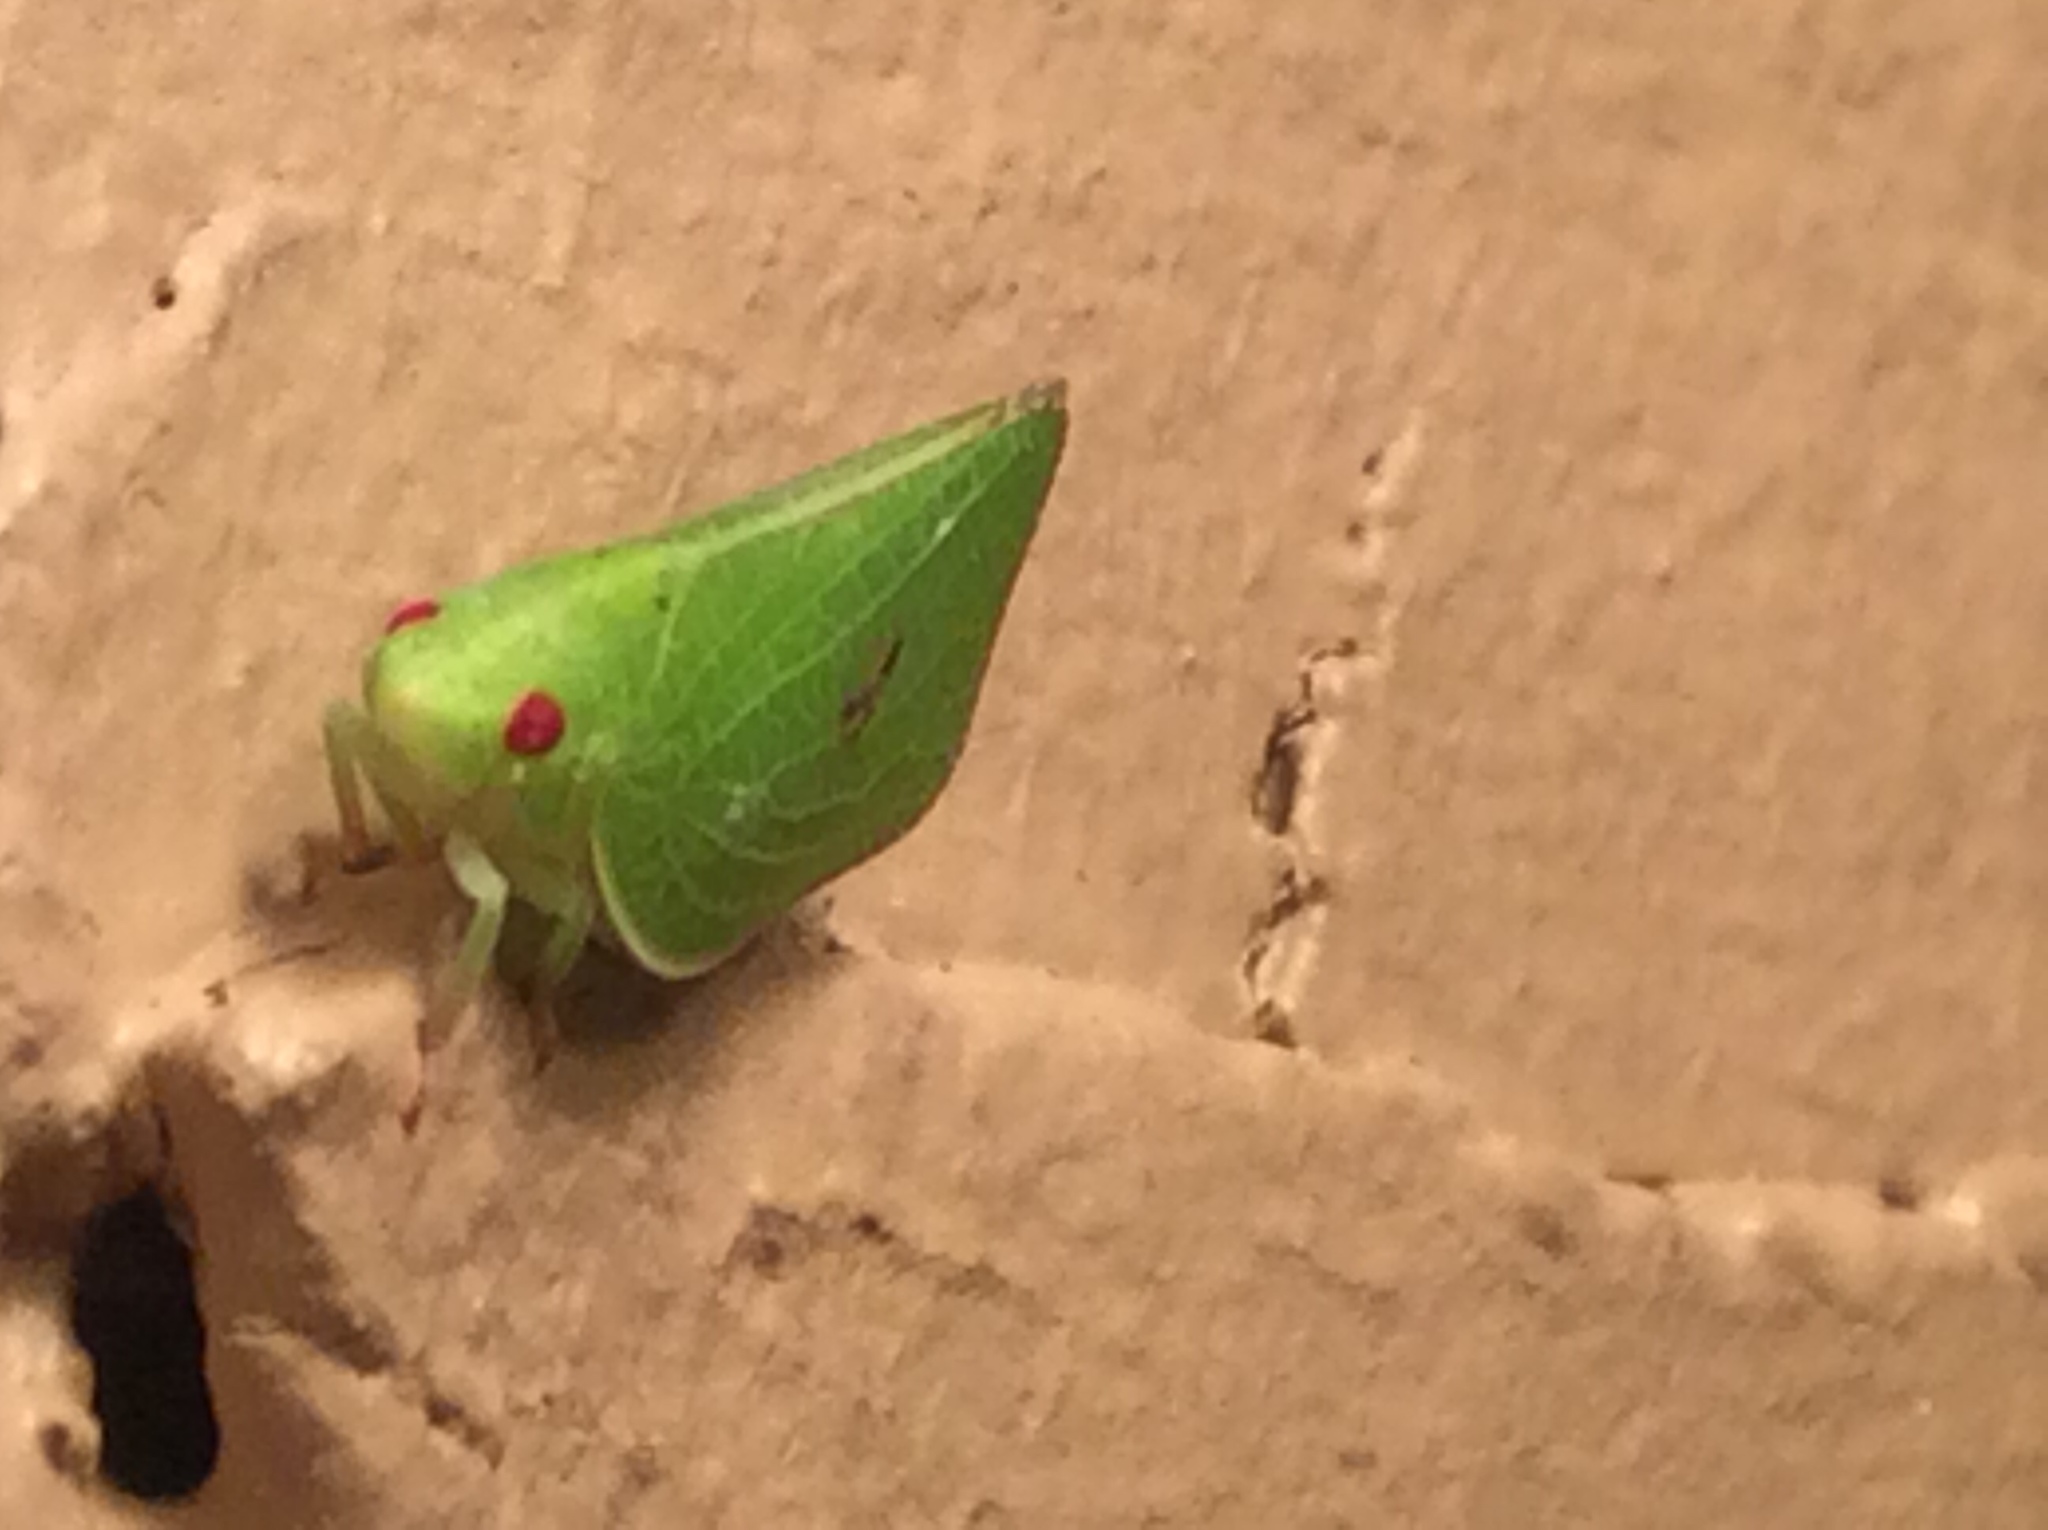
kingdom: Animalia
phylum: Arthropoda
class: Insecta
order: Hemiptera
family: Acanaloniidae
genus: Acanalonia
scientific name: Acanalonia conica
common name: Green cone-headed planthopper
